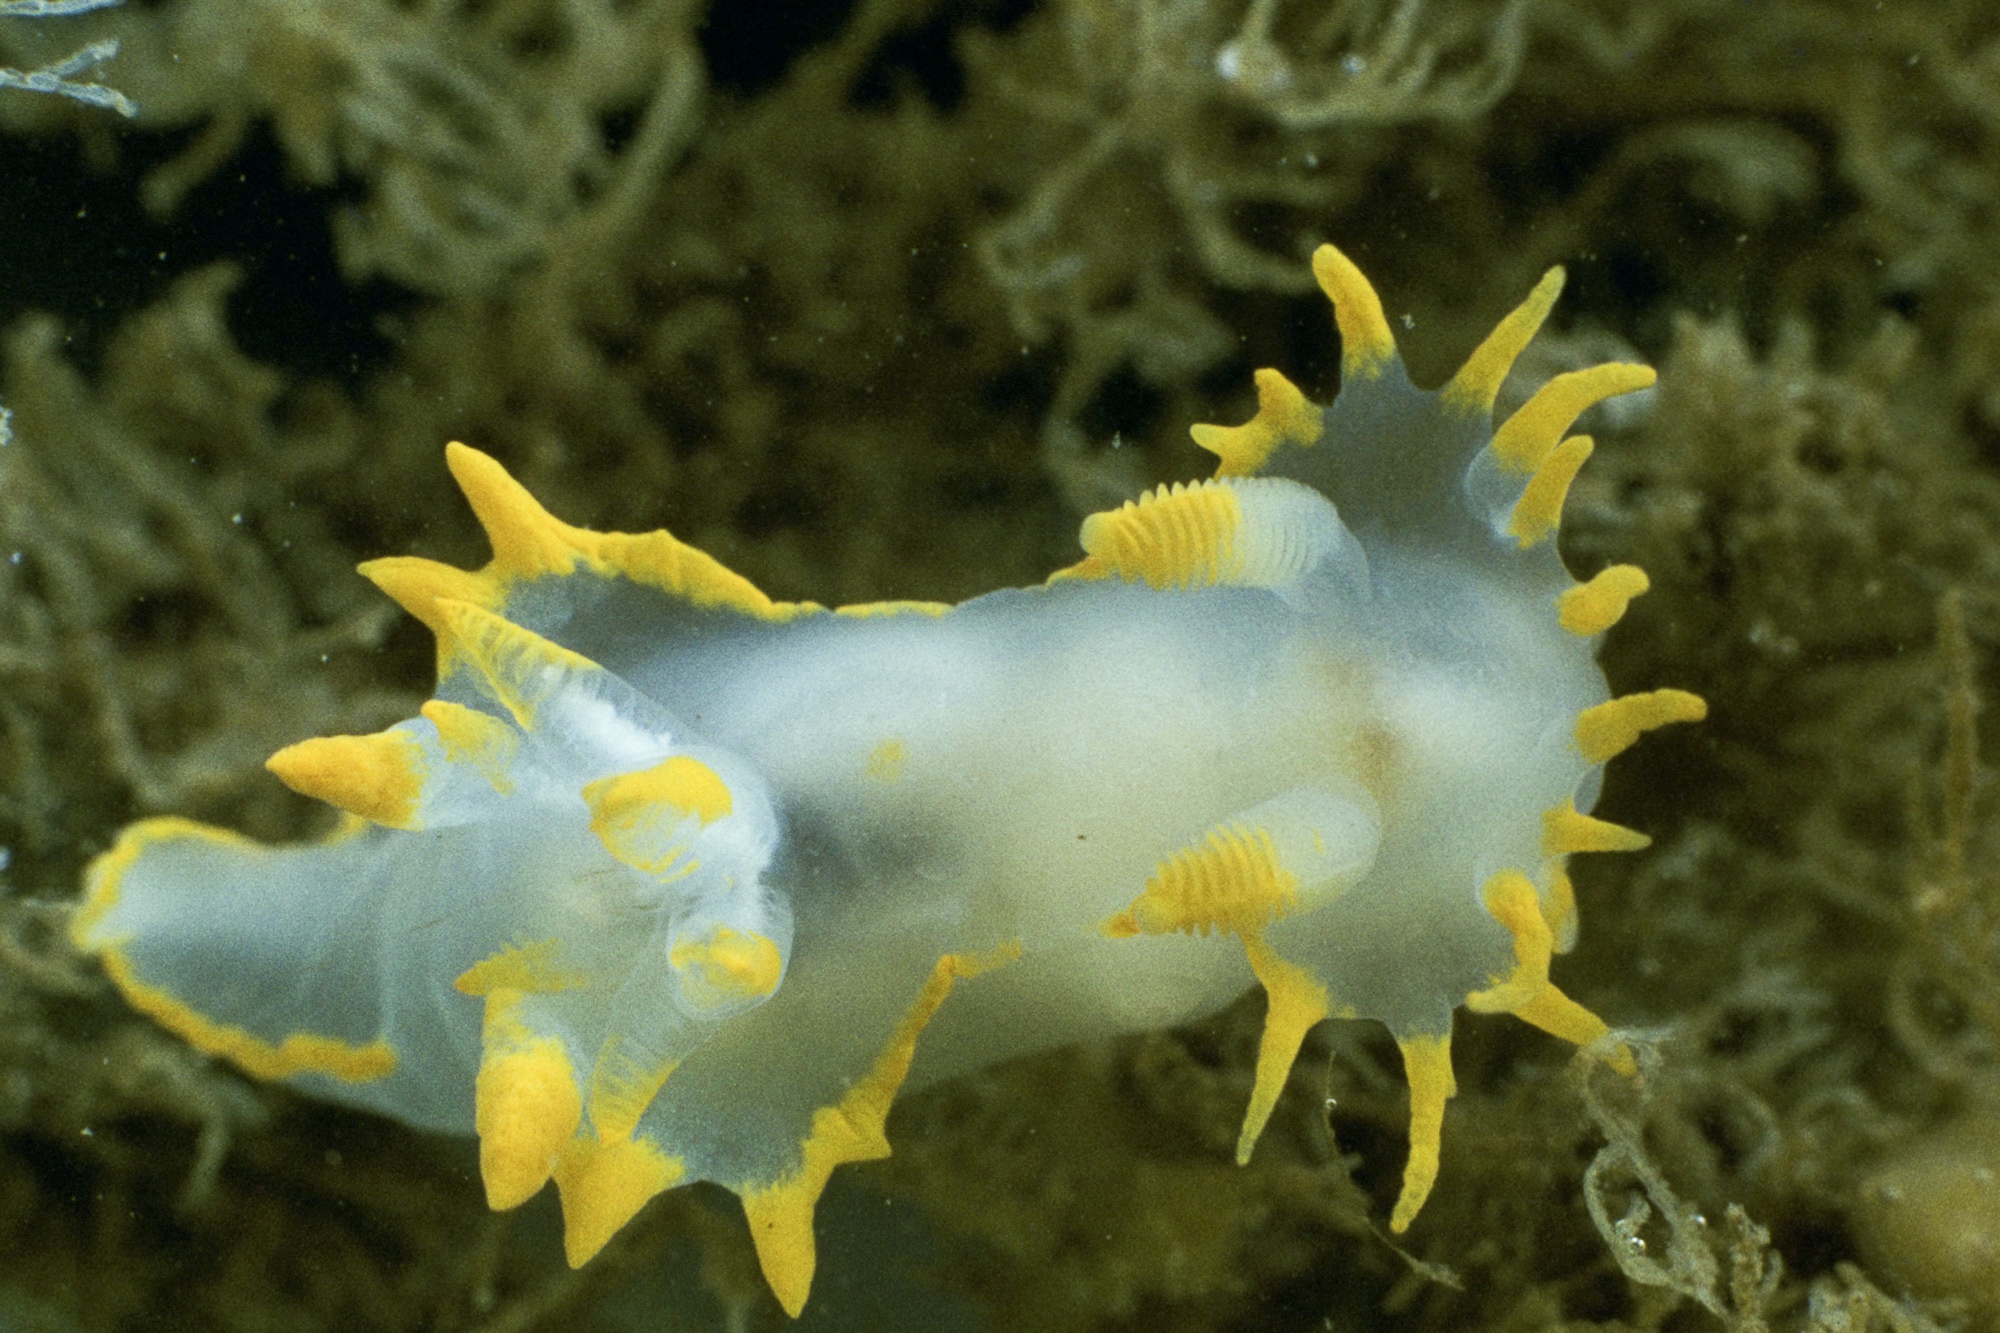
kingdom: Animalia
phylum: Mollusca
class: Gastropoda
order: Nudibranchia
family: Polyceridae
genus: Polycera
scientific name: Polycera faeroensis
